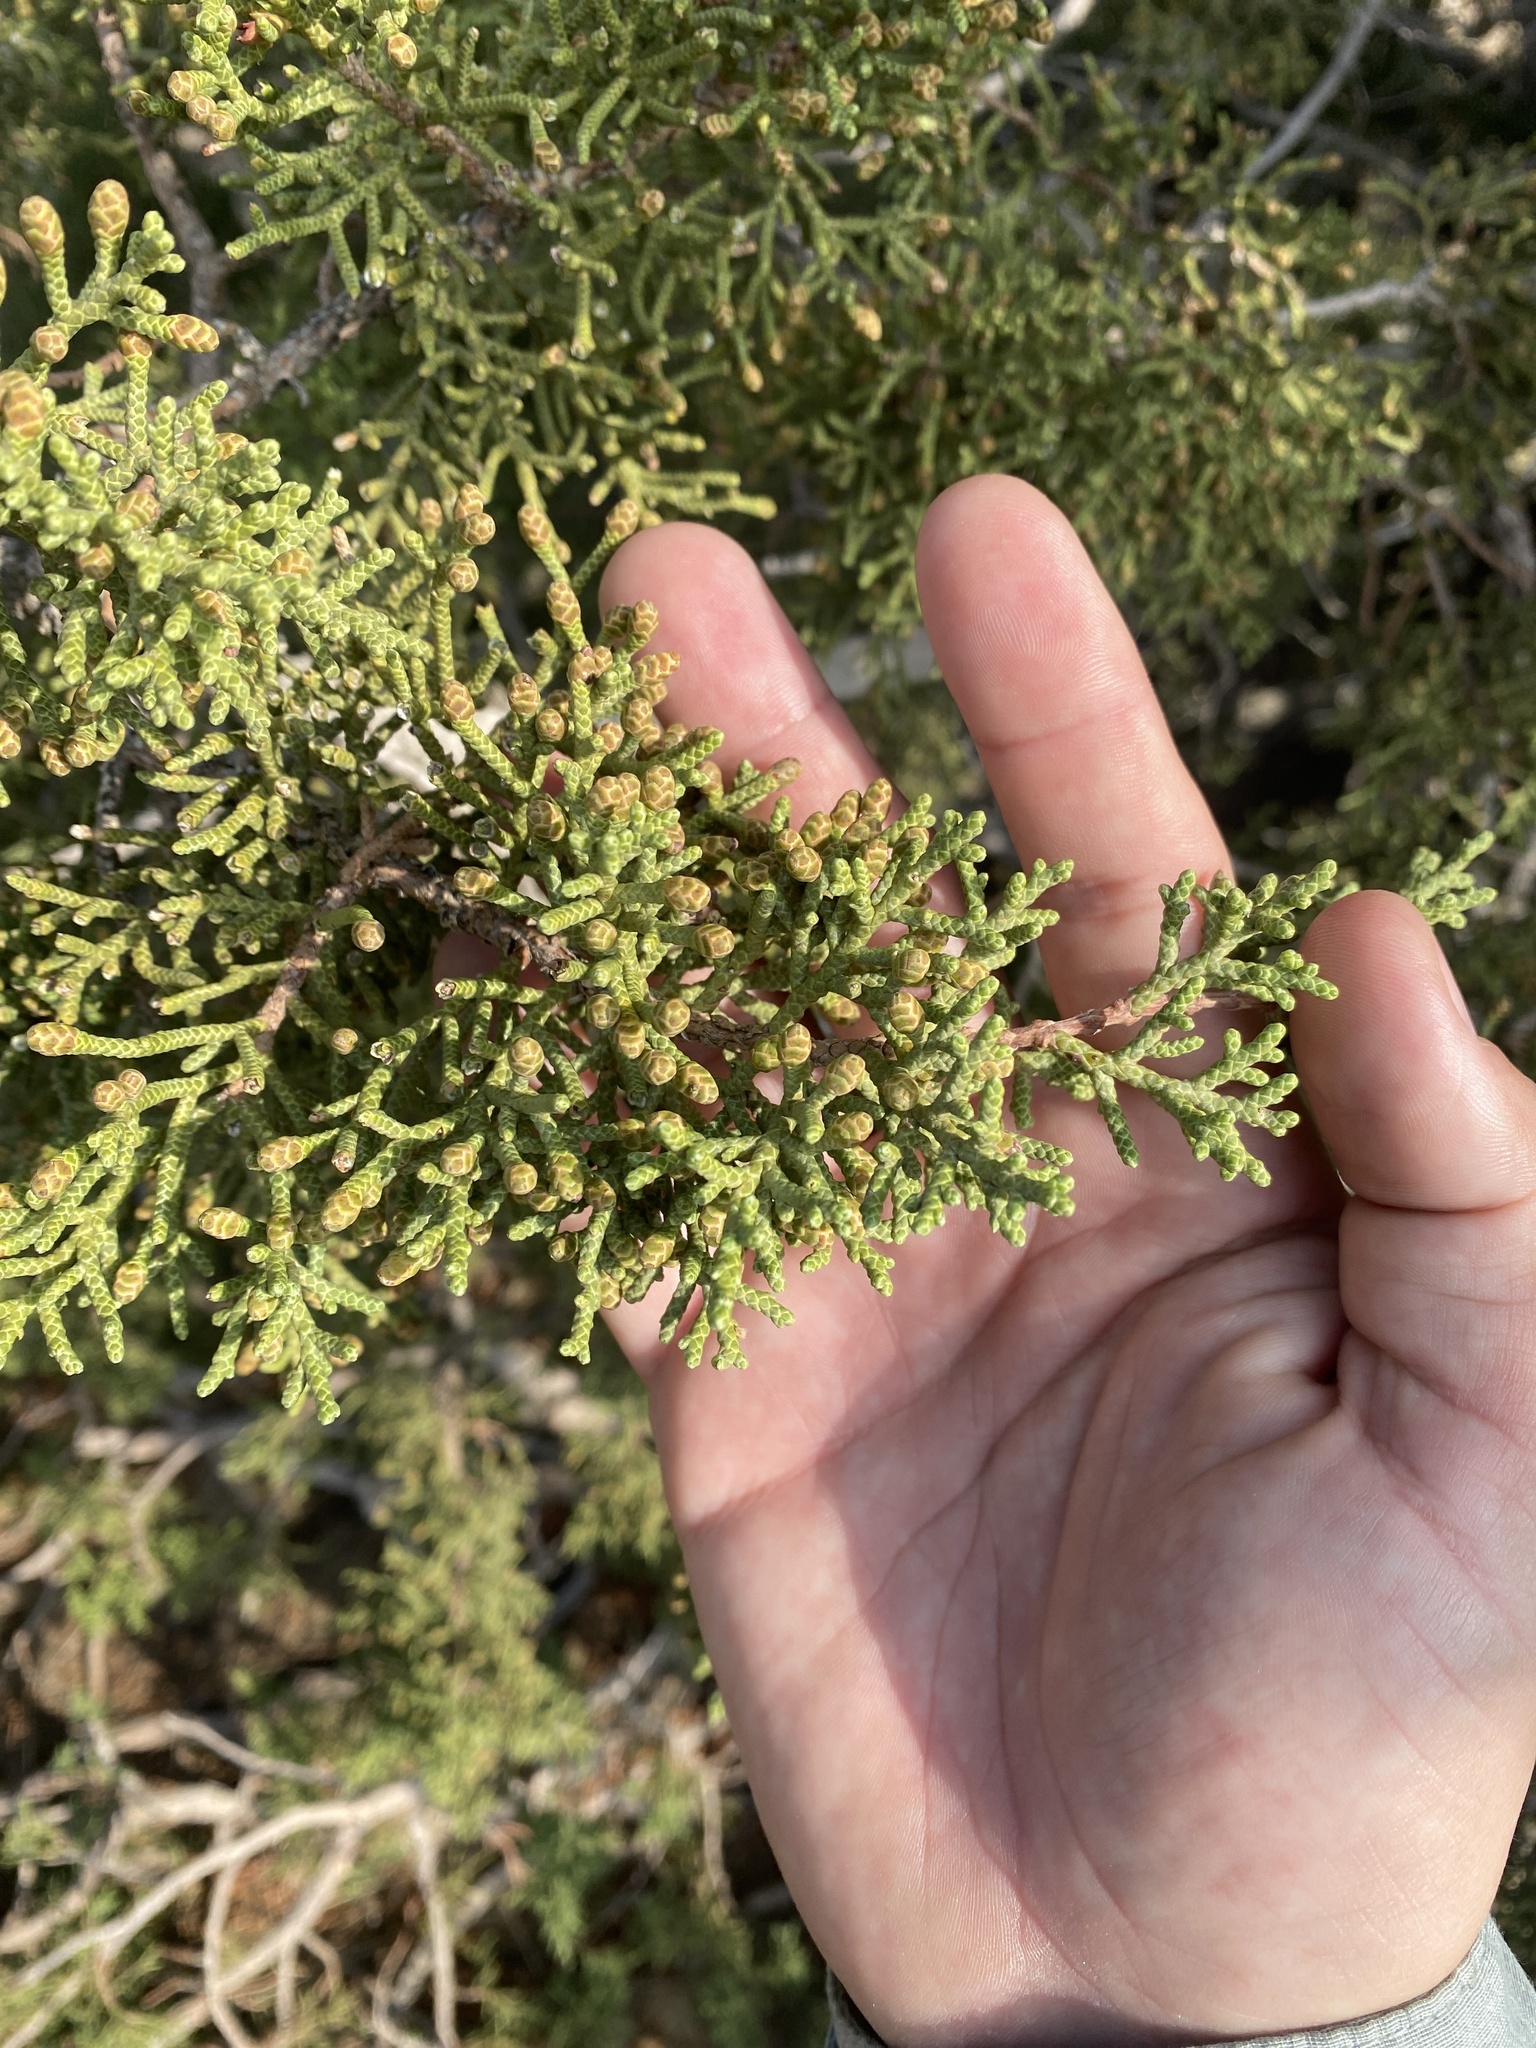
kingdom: Plantae
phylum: Tracheophyta
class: Pinopsida
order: Pinales
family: Cupressaceae
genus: Juniperus
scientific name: Juniperus californica
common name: California juniper
